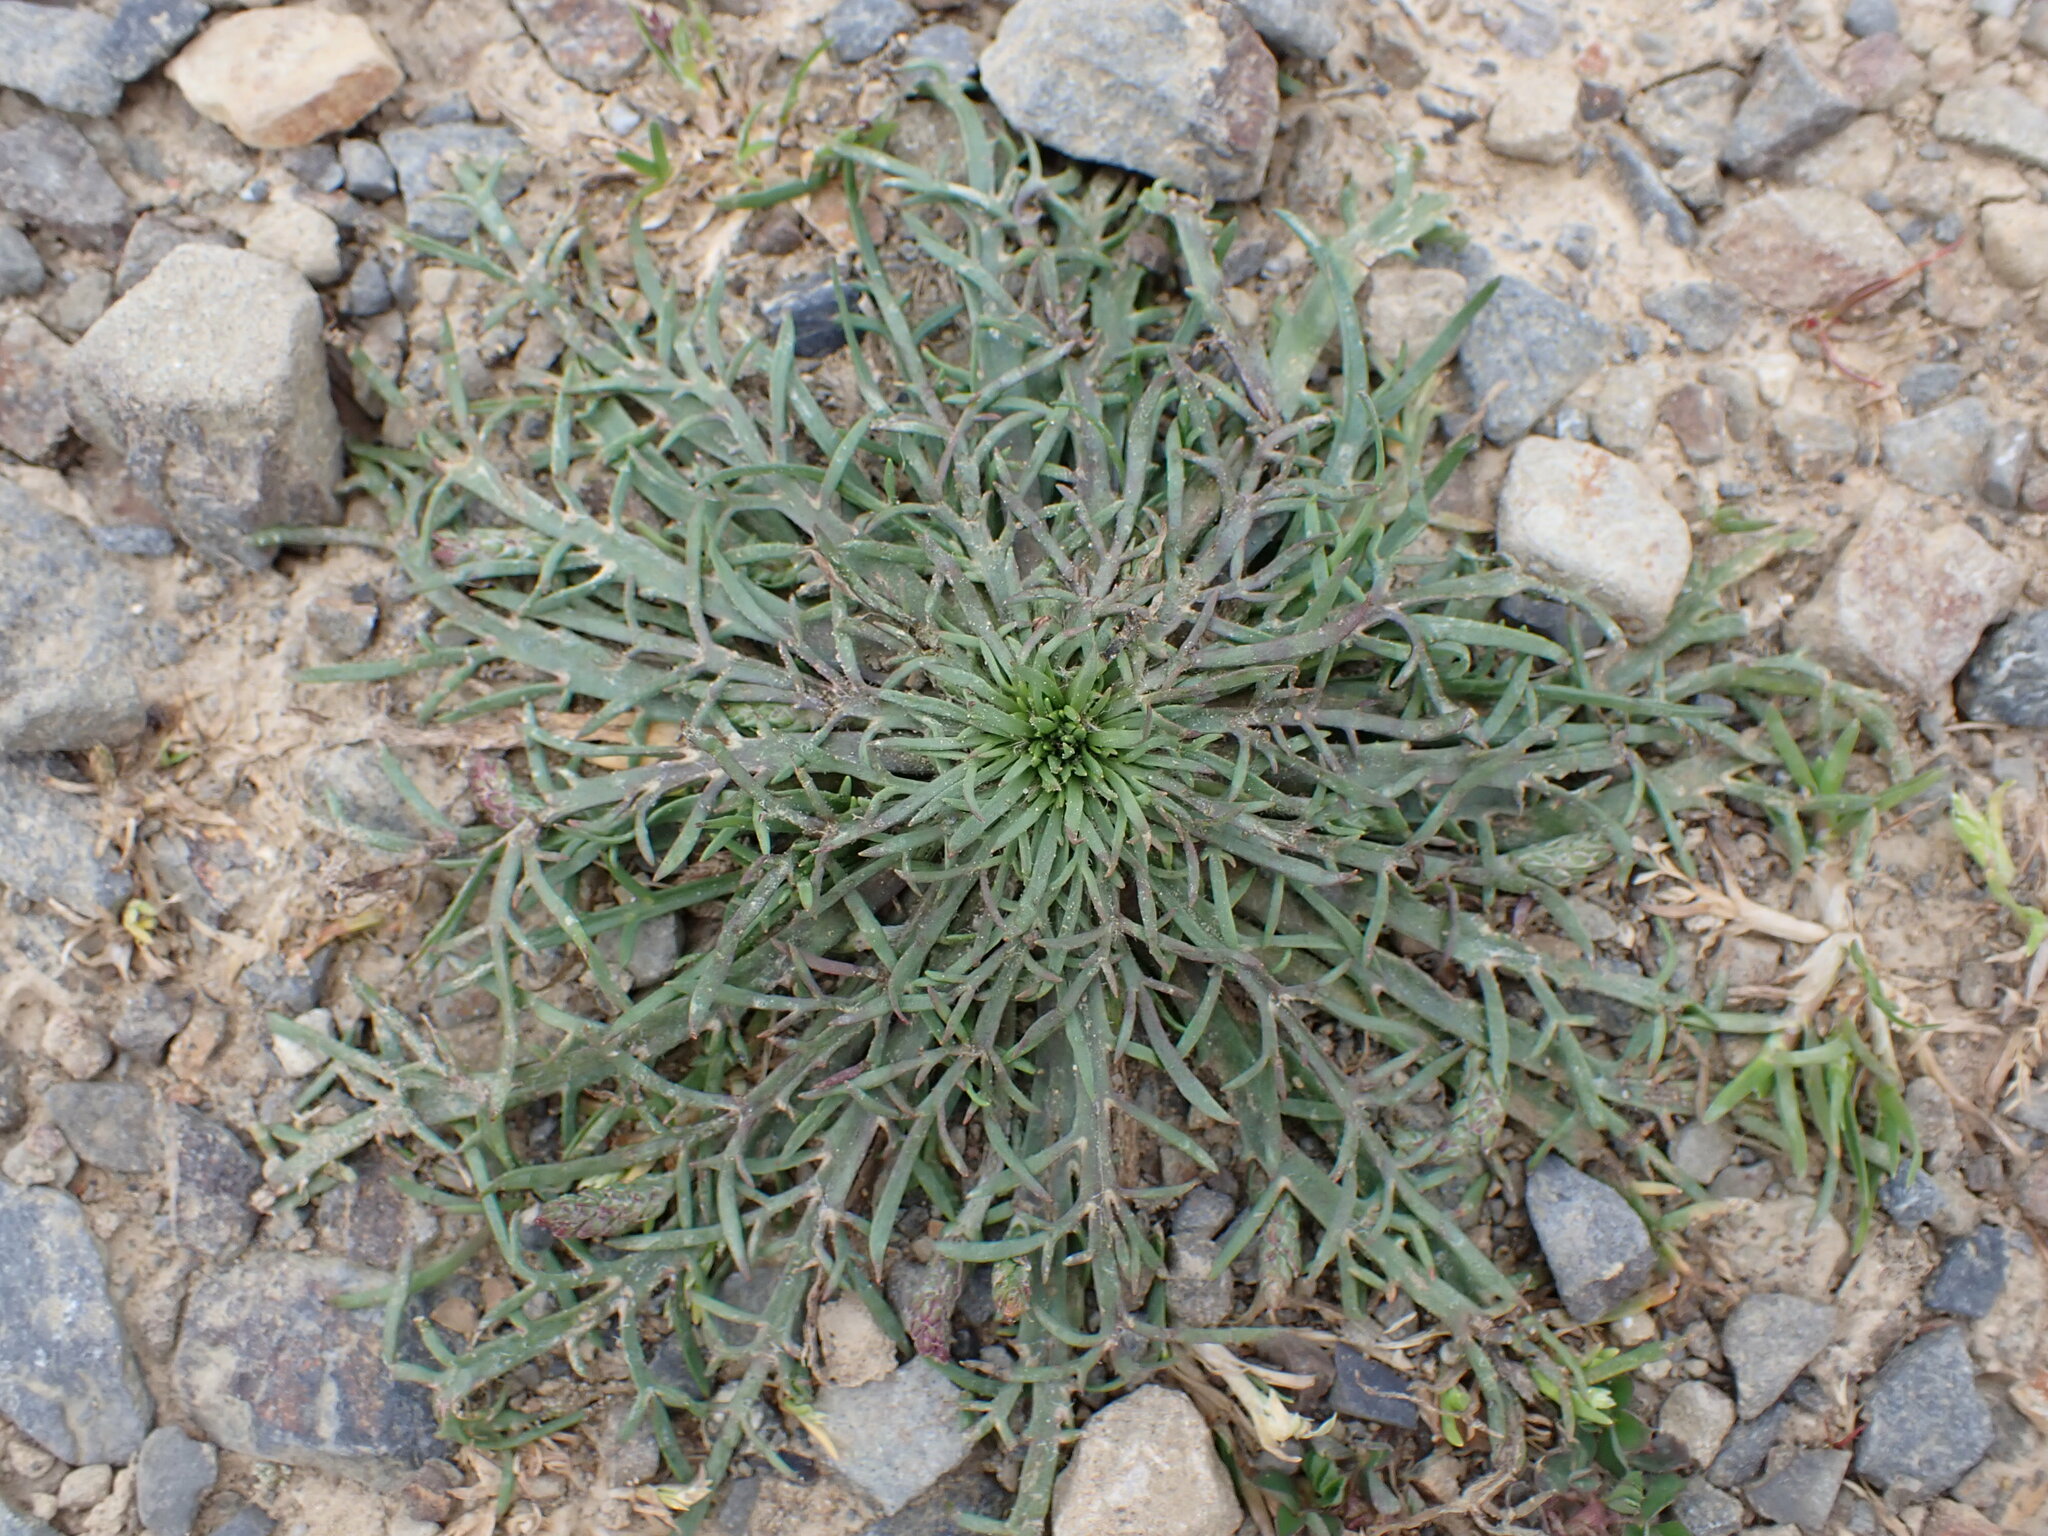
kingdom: Plantae
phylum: Tracheophyta
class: Magnoliopsida
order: Lamiales
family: Plantaginaceae
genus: Plantago
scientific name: Plantago coronopus
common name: Buck's-horn plantain
